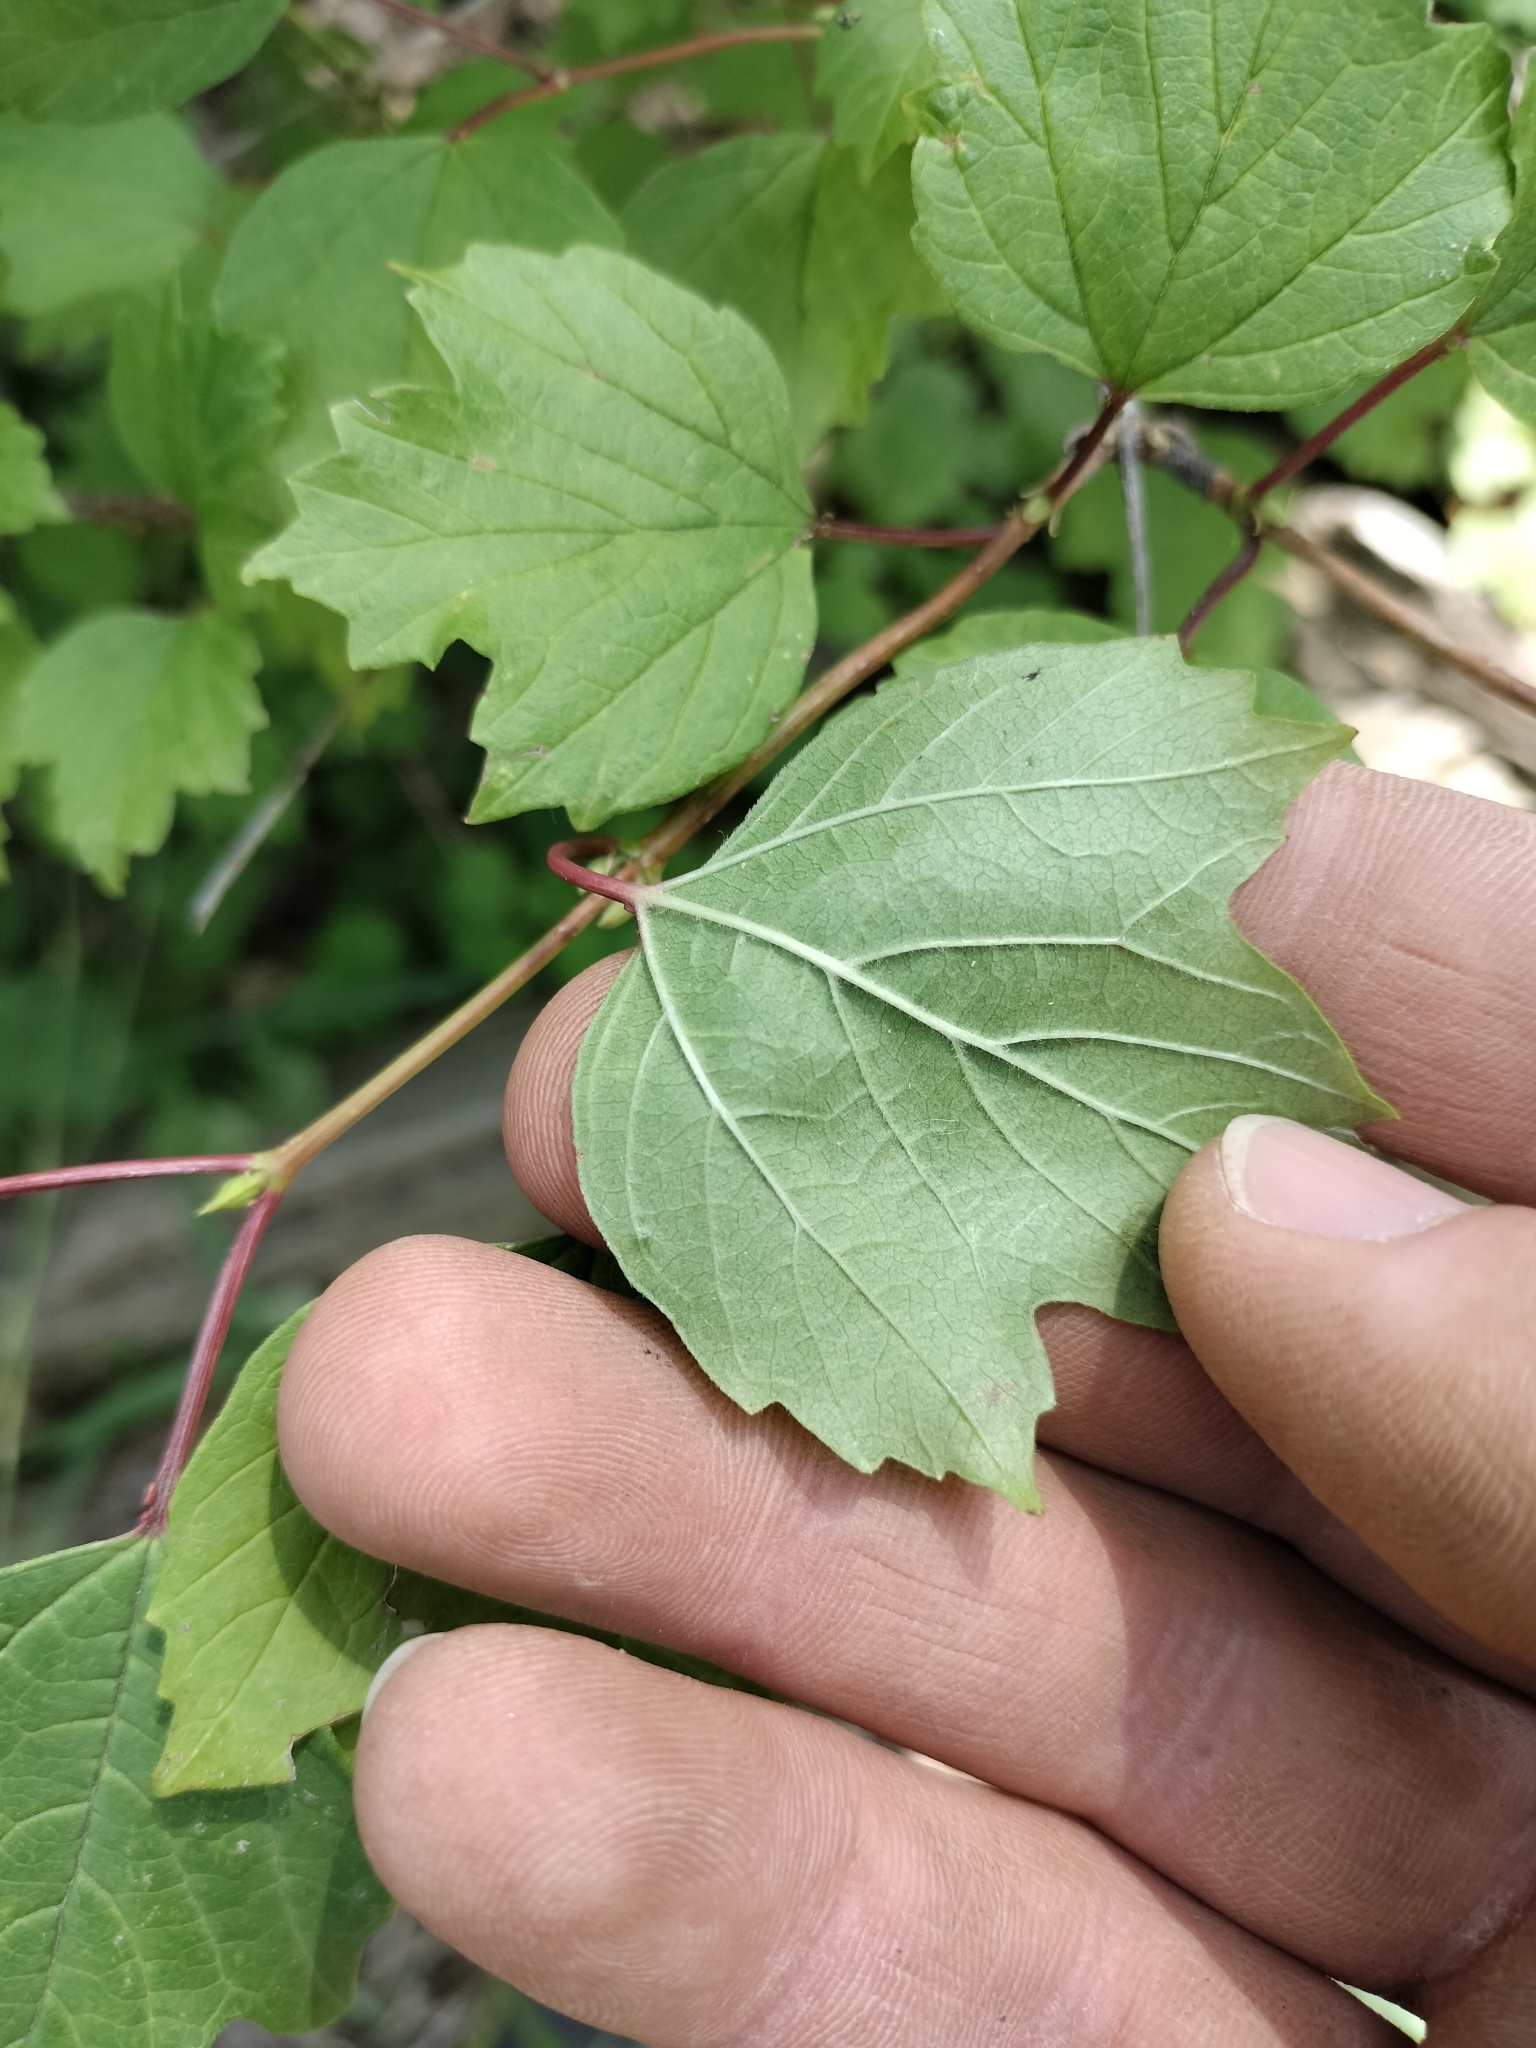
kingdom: Plantae
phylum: Tracheophyta
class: Magnoliopsida
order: Dipsacales
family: Viburnaceae
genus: Viburnum
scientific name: Viburnum opulus
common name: Guelder-rose
